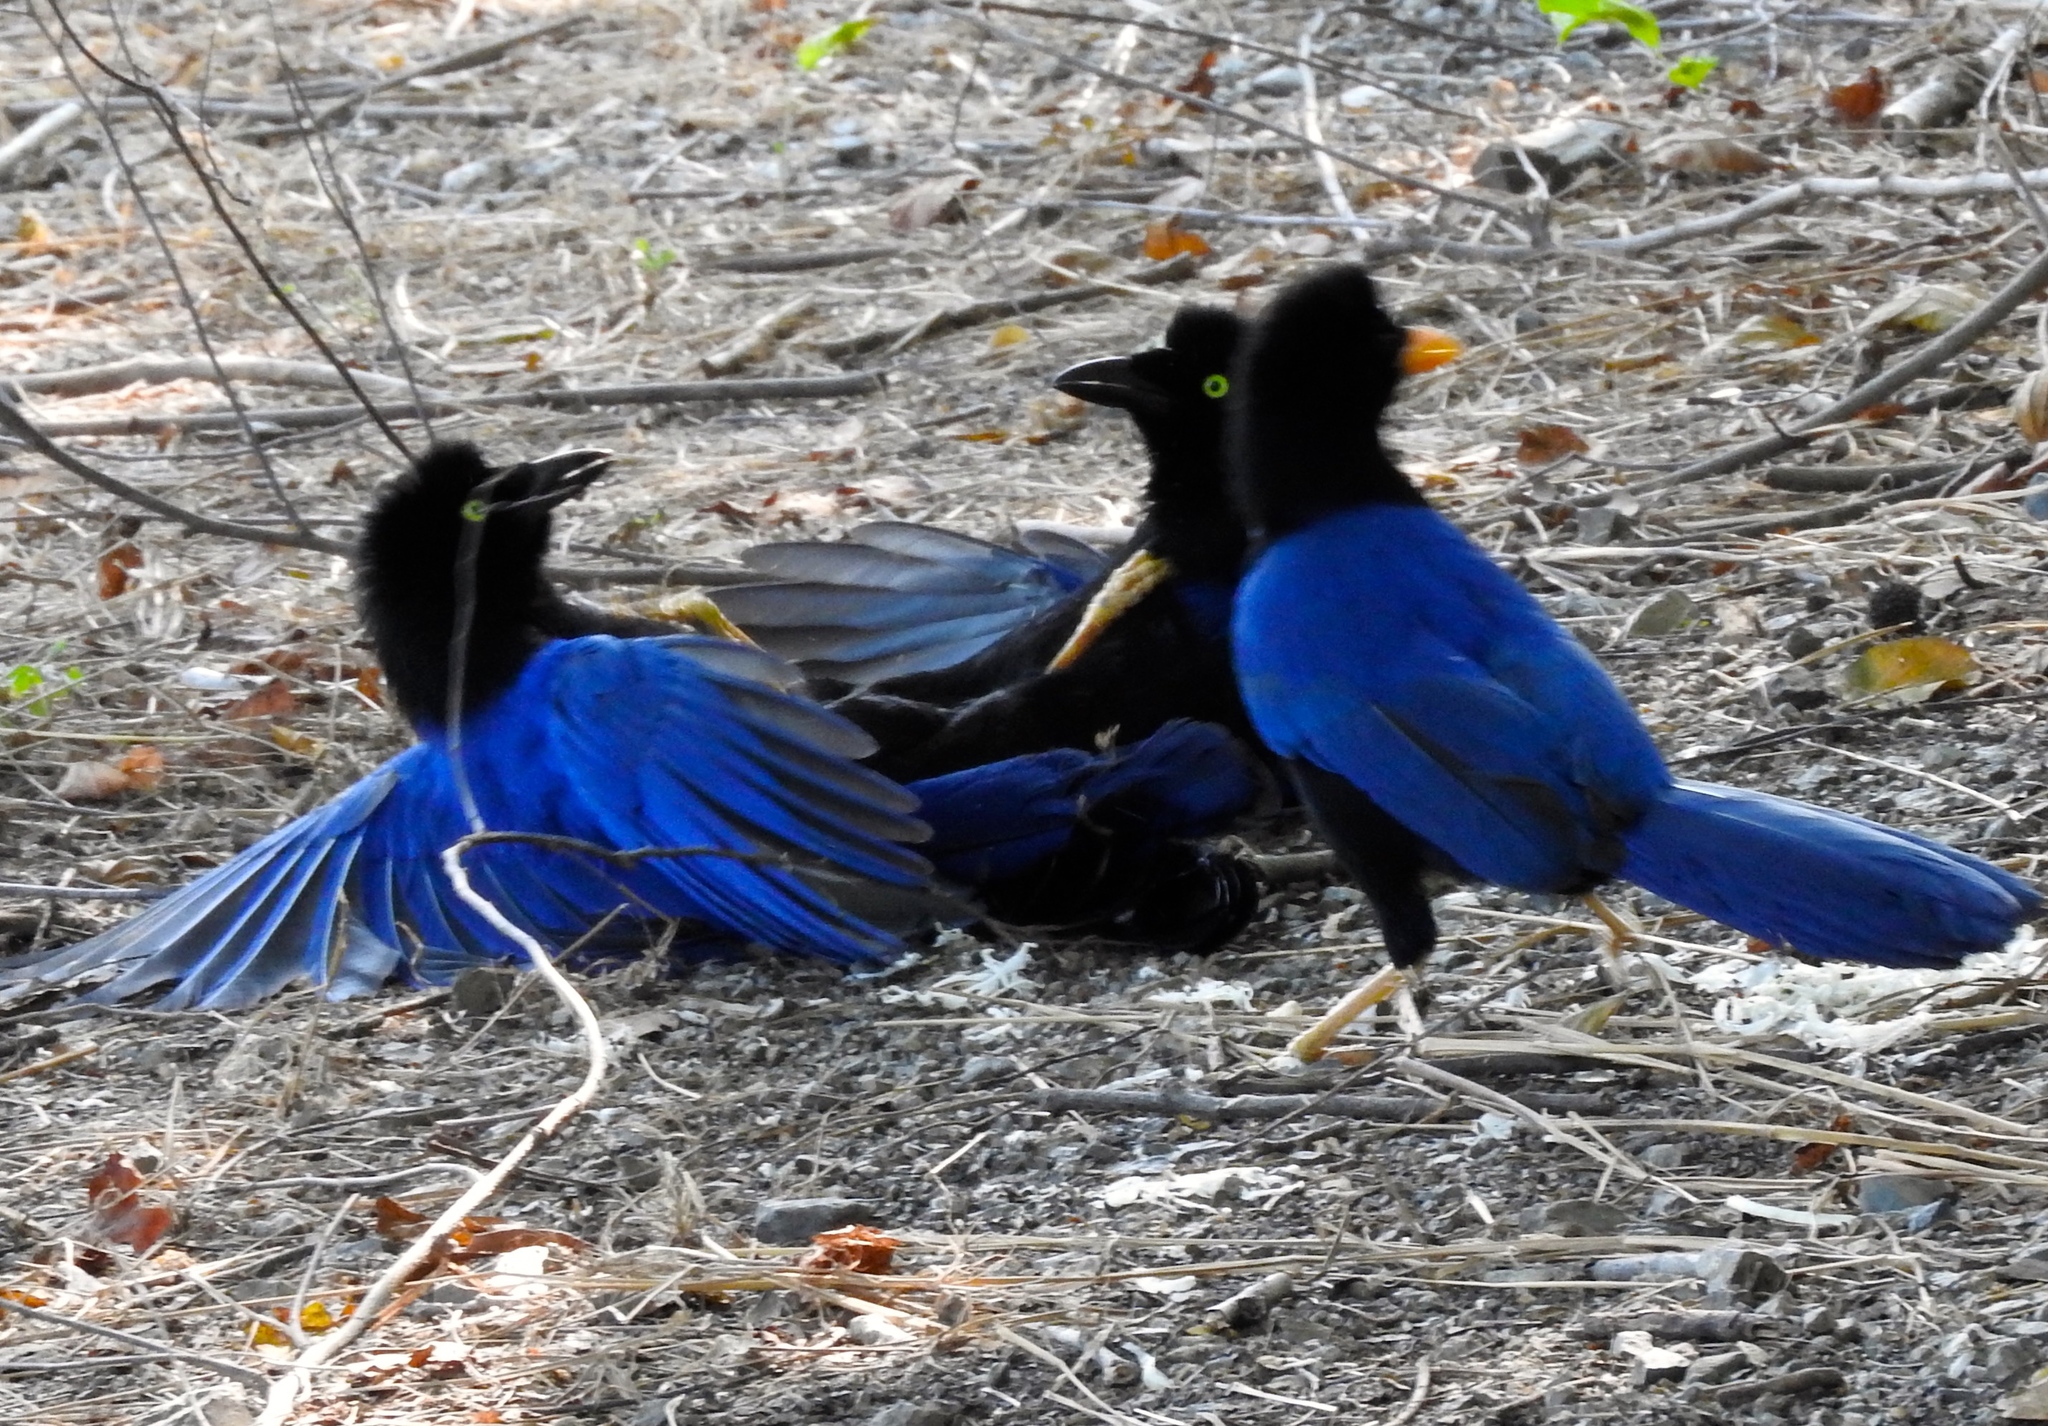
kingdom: Animalia
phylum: Chordata
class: Aves
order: Passeriformes
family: Corvidae
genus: Cyanocorax
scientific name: Cyanocorax beecheii
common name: Purplish-backed jay
